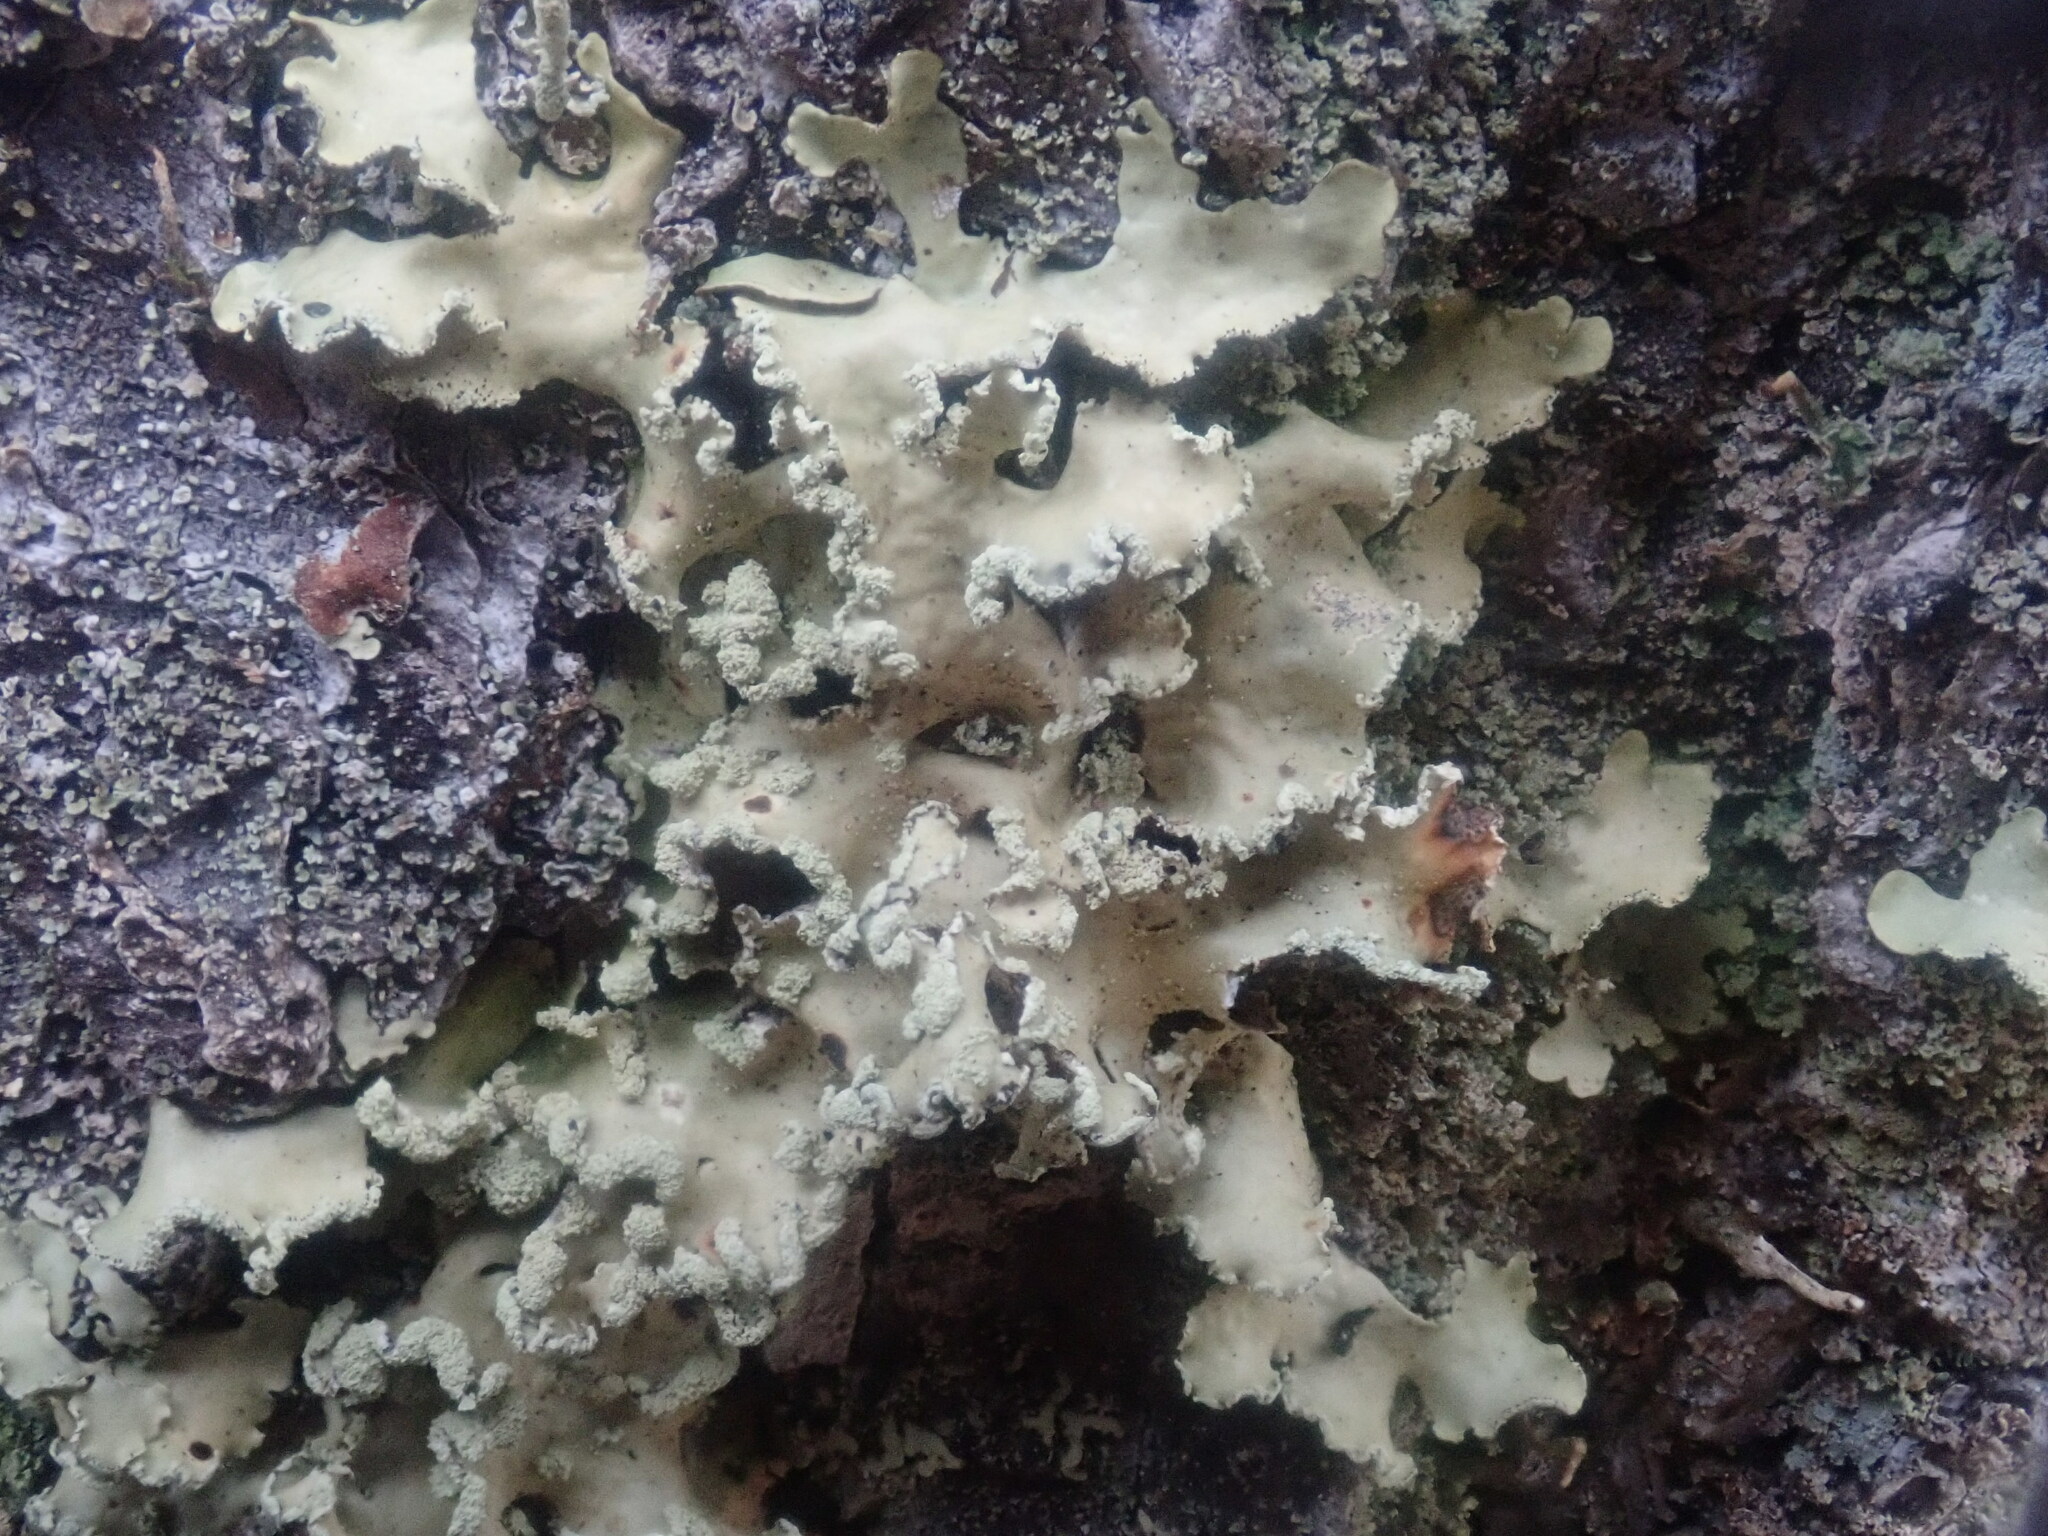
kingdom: Fungi
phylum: Ascomycota
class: Lecanoromycetes
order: Lecanorales
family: Parmeliaceae
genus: Usnocetraria
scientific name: Usnocetraria oakesiana
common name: Yellow ribbon lichen
